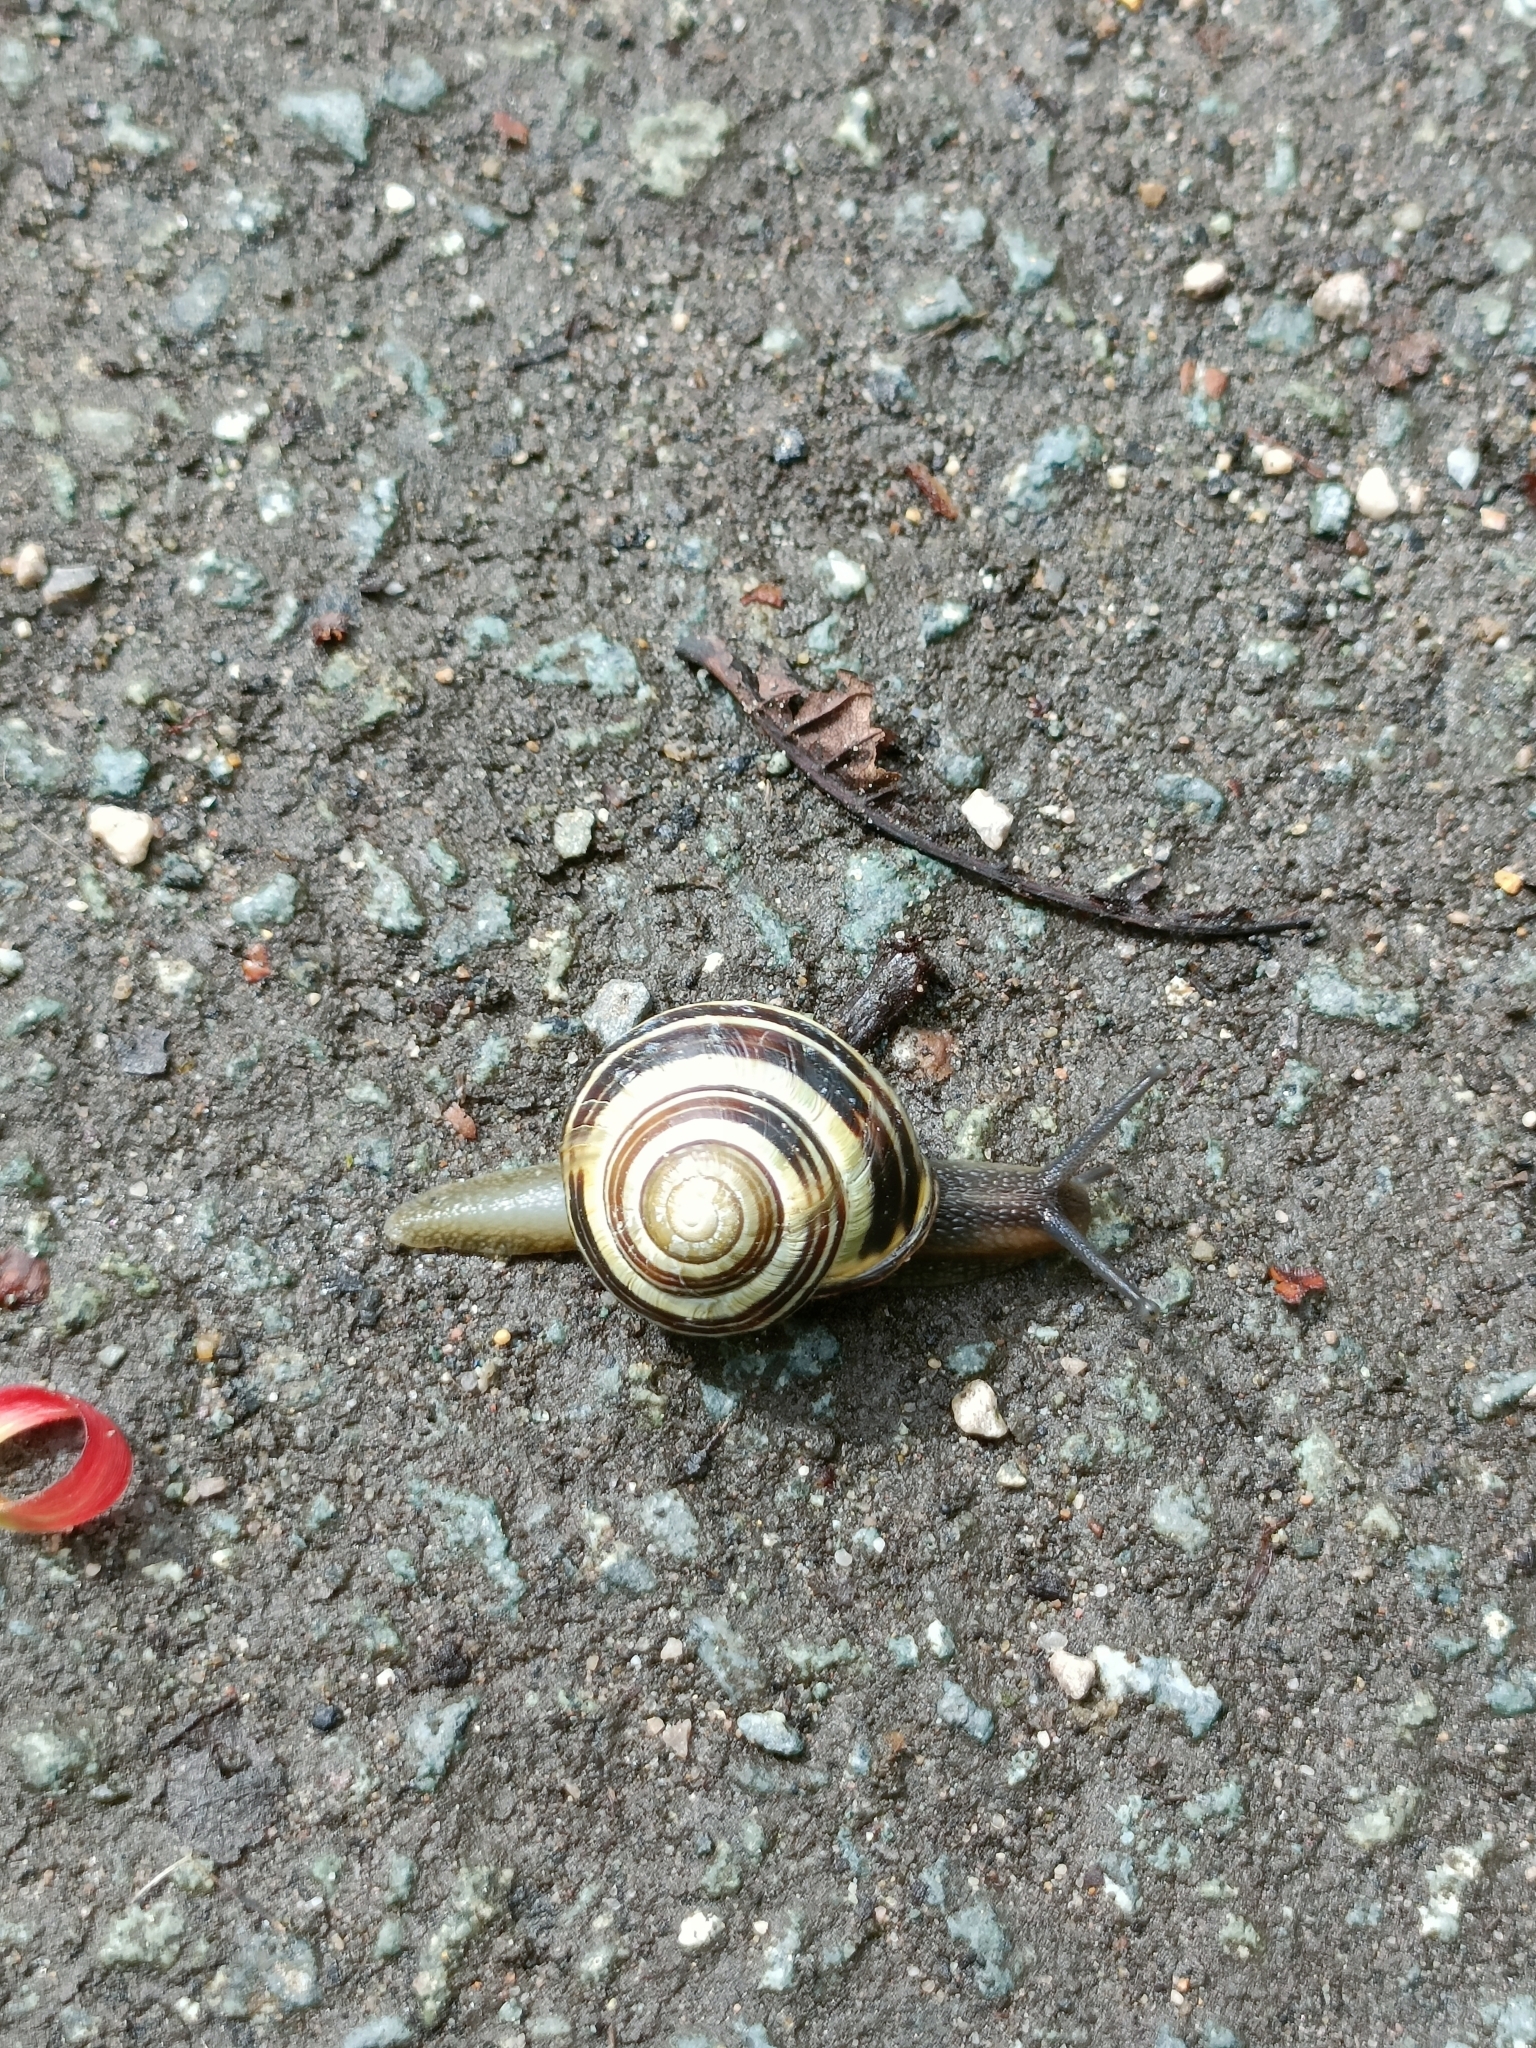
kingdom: Animalia
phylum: Mollusca
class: Gastropoda
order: Stylommatophora
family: Helicidae
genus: Cepaea
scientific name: Cepaea nemoralis
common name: Grovesnail
